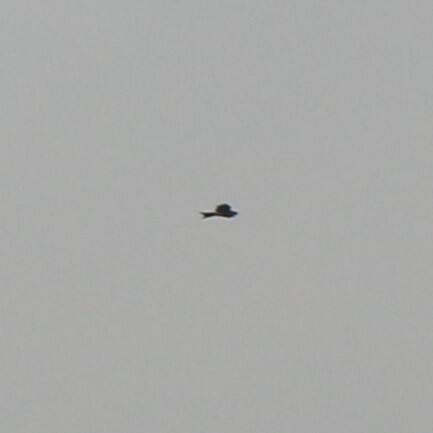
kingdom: Animalia
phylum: Chordata
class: Aves
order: Accipitriformes
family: Accipitridae
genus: Milvus
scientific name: Milvus milvus
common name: Red kite
